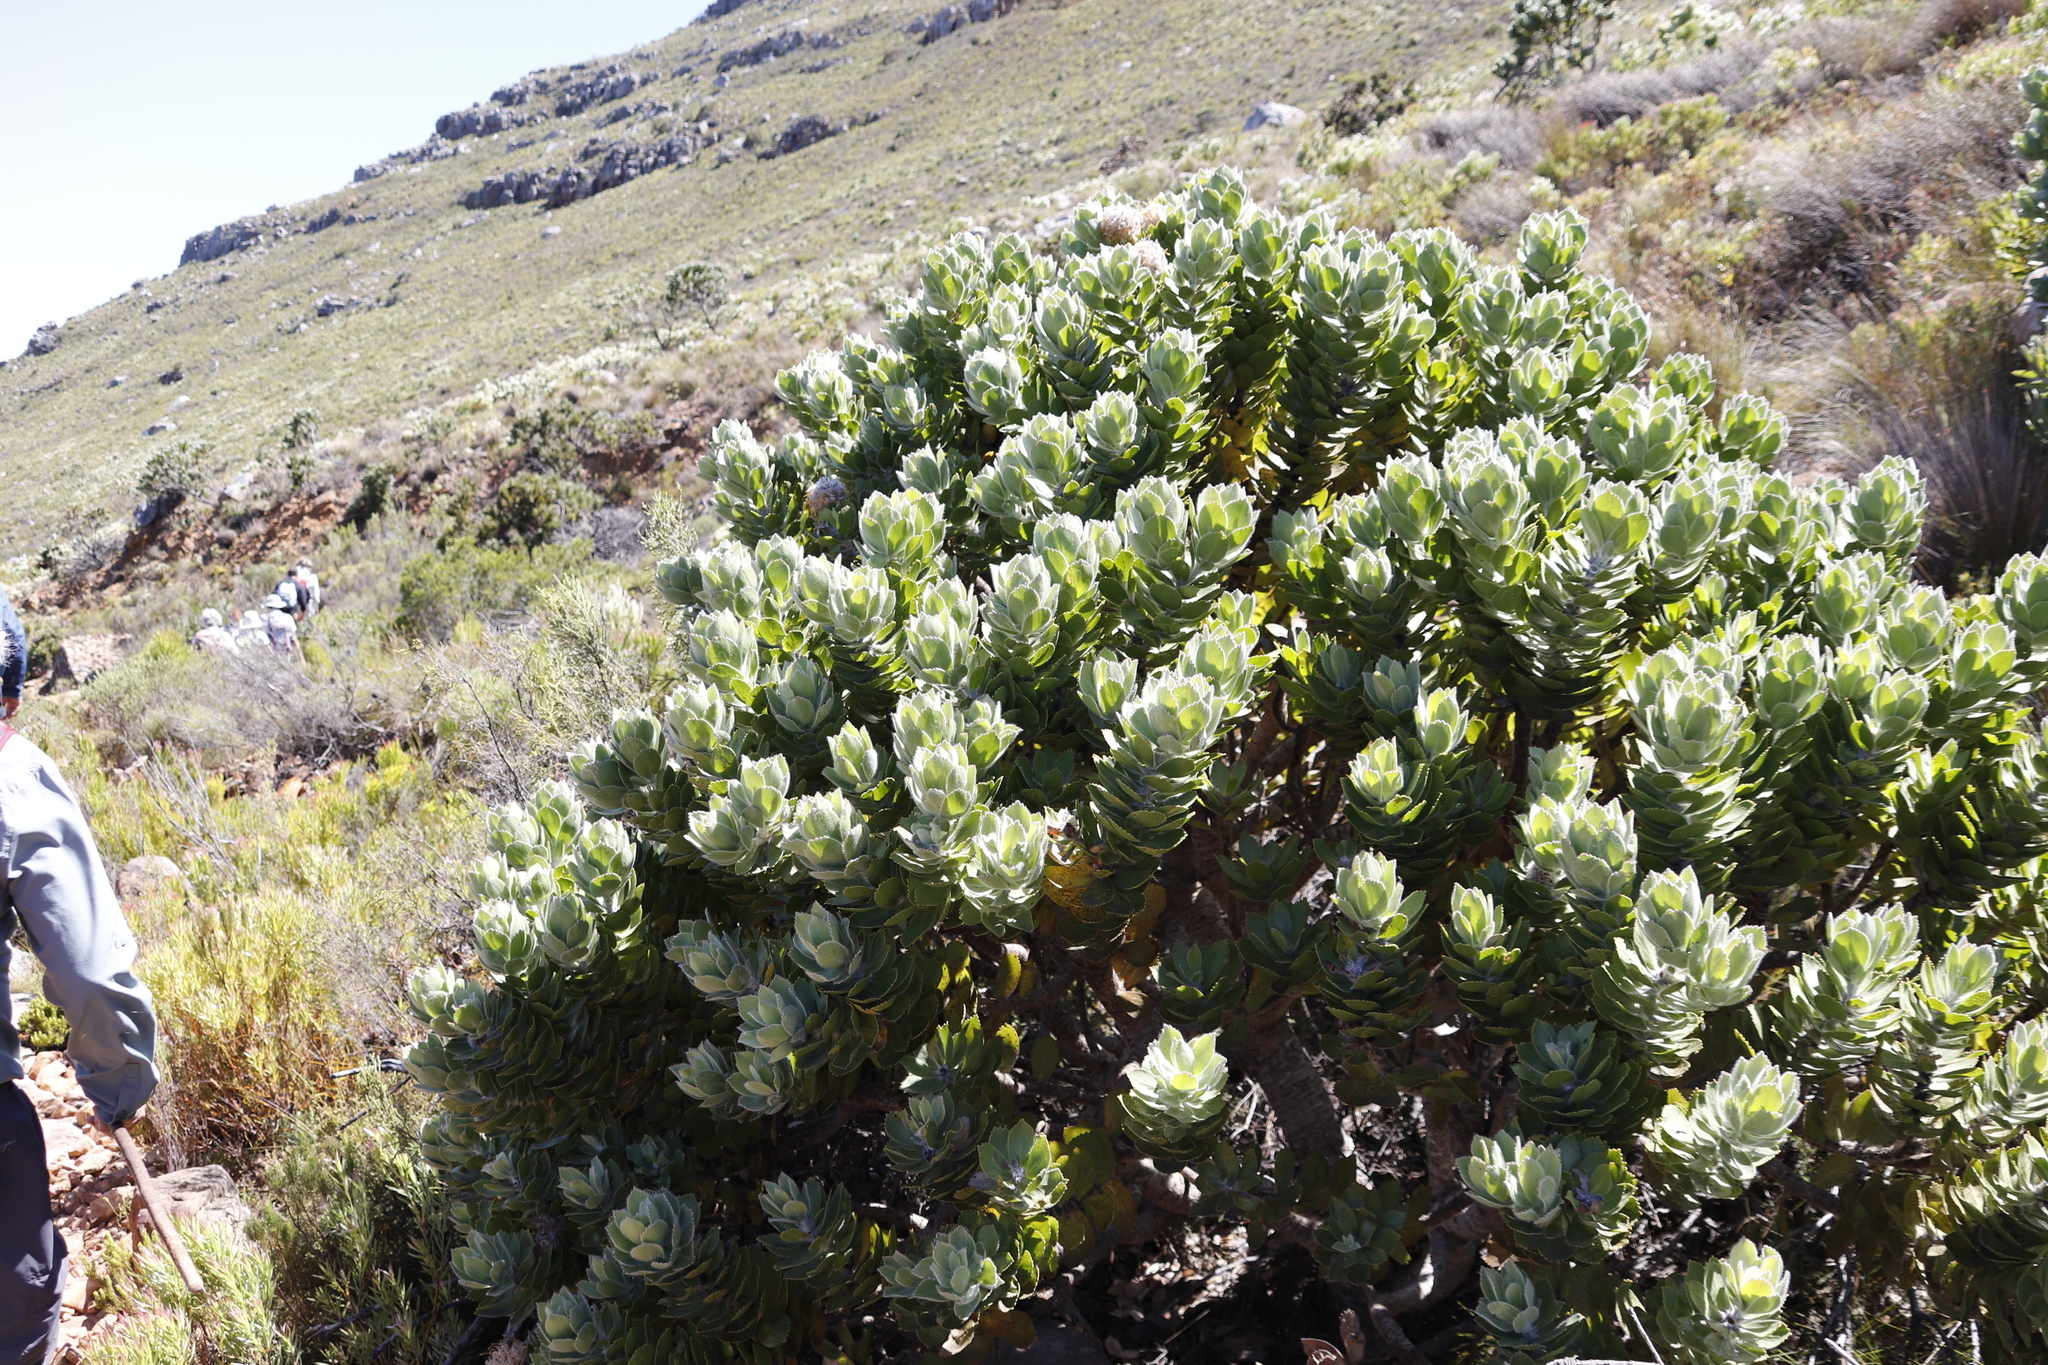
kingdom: Plantae
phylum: Tracheophyta
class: Magnoliopsida
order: Proteales
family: Proteaceae
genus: Leucospermum
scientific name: Leucospermum conocarpodendron
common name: Tree pincushion
